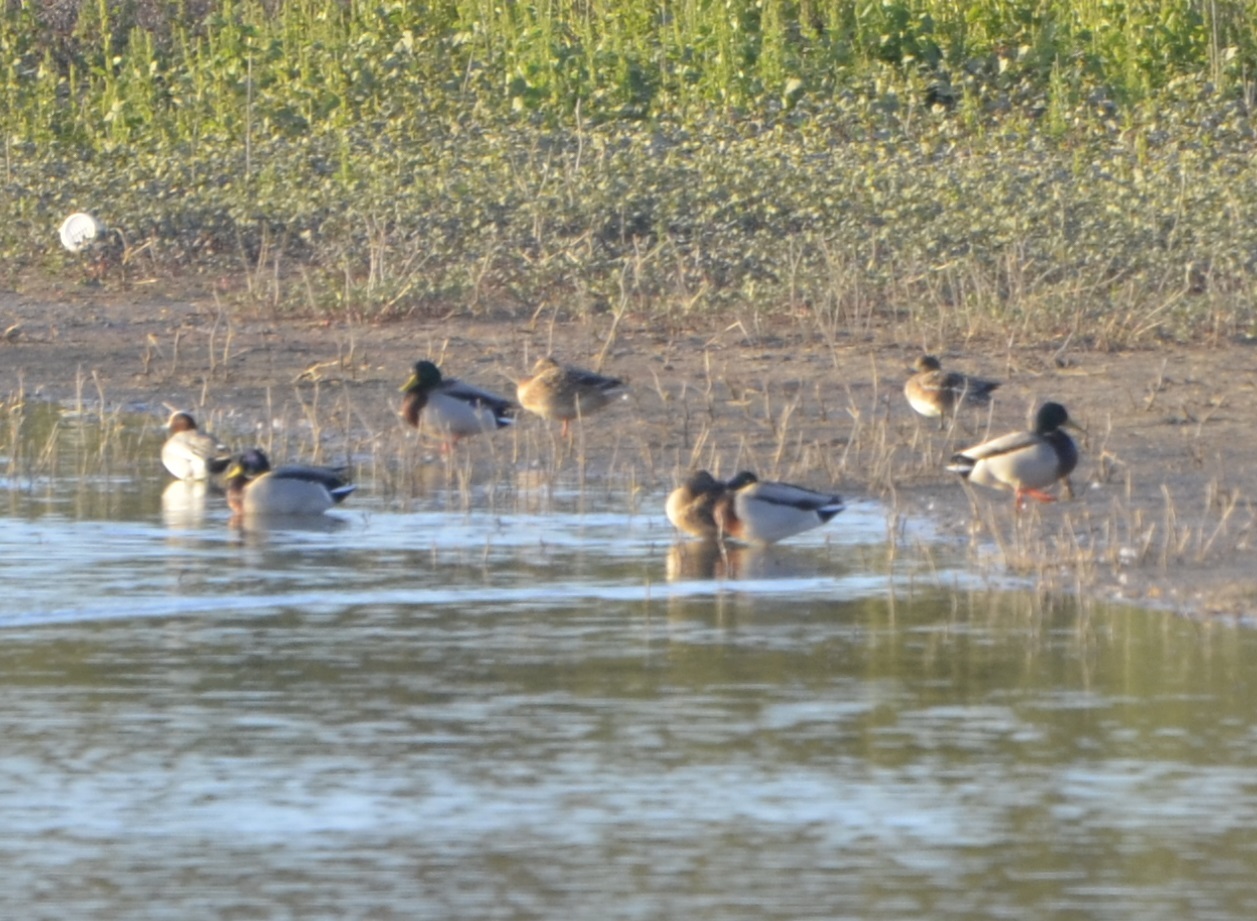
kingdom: Animalia
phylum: Chordata
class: Aves
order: Anseriformes
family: Anatidae
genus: Anas
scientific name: Anas platyrhynchos
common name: Mallard
